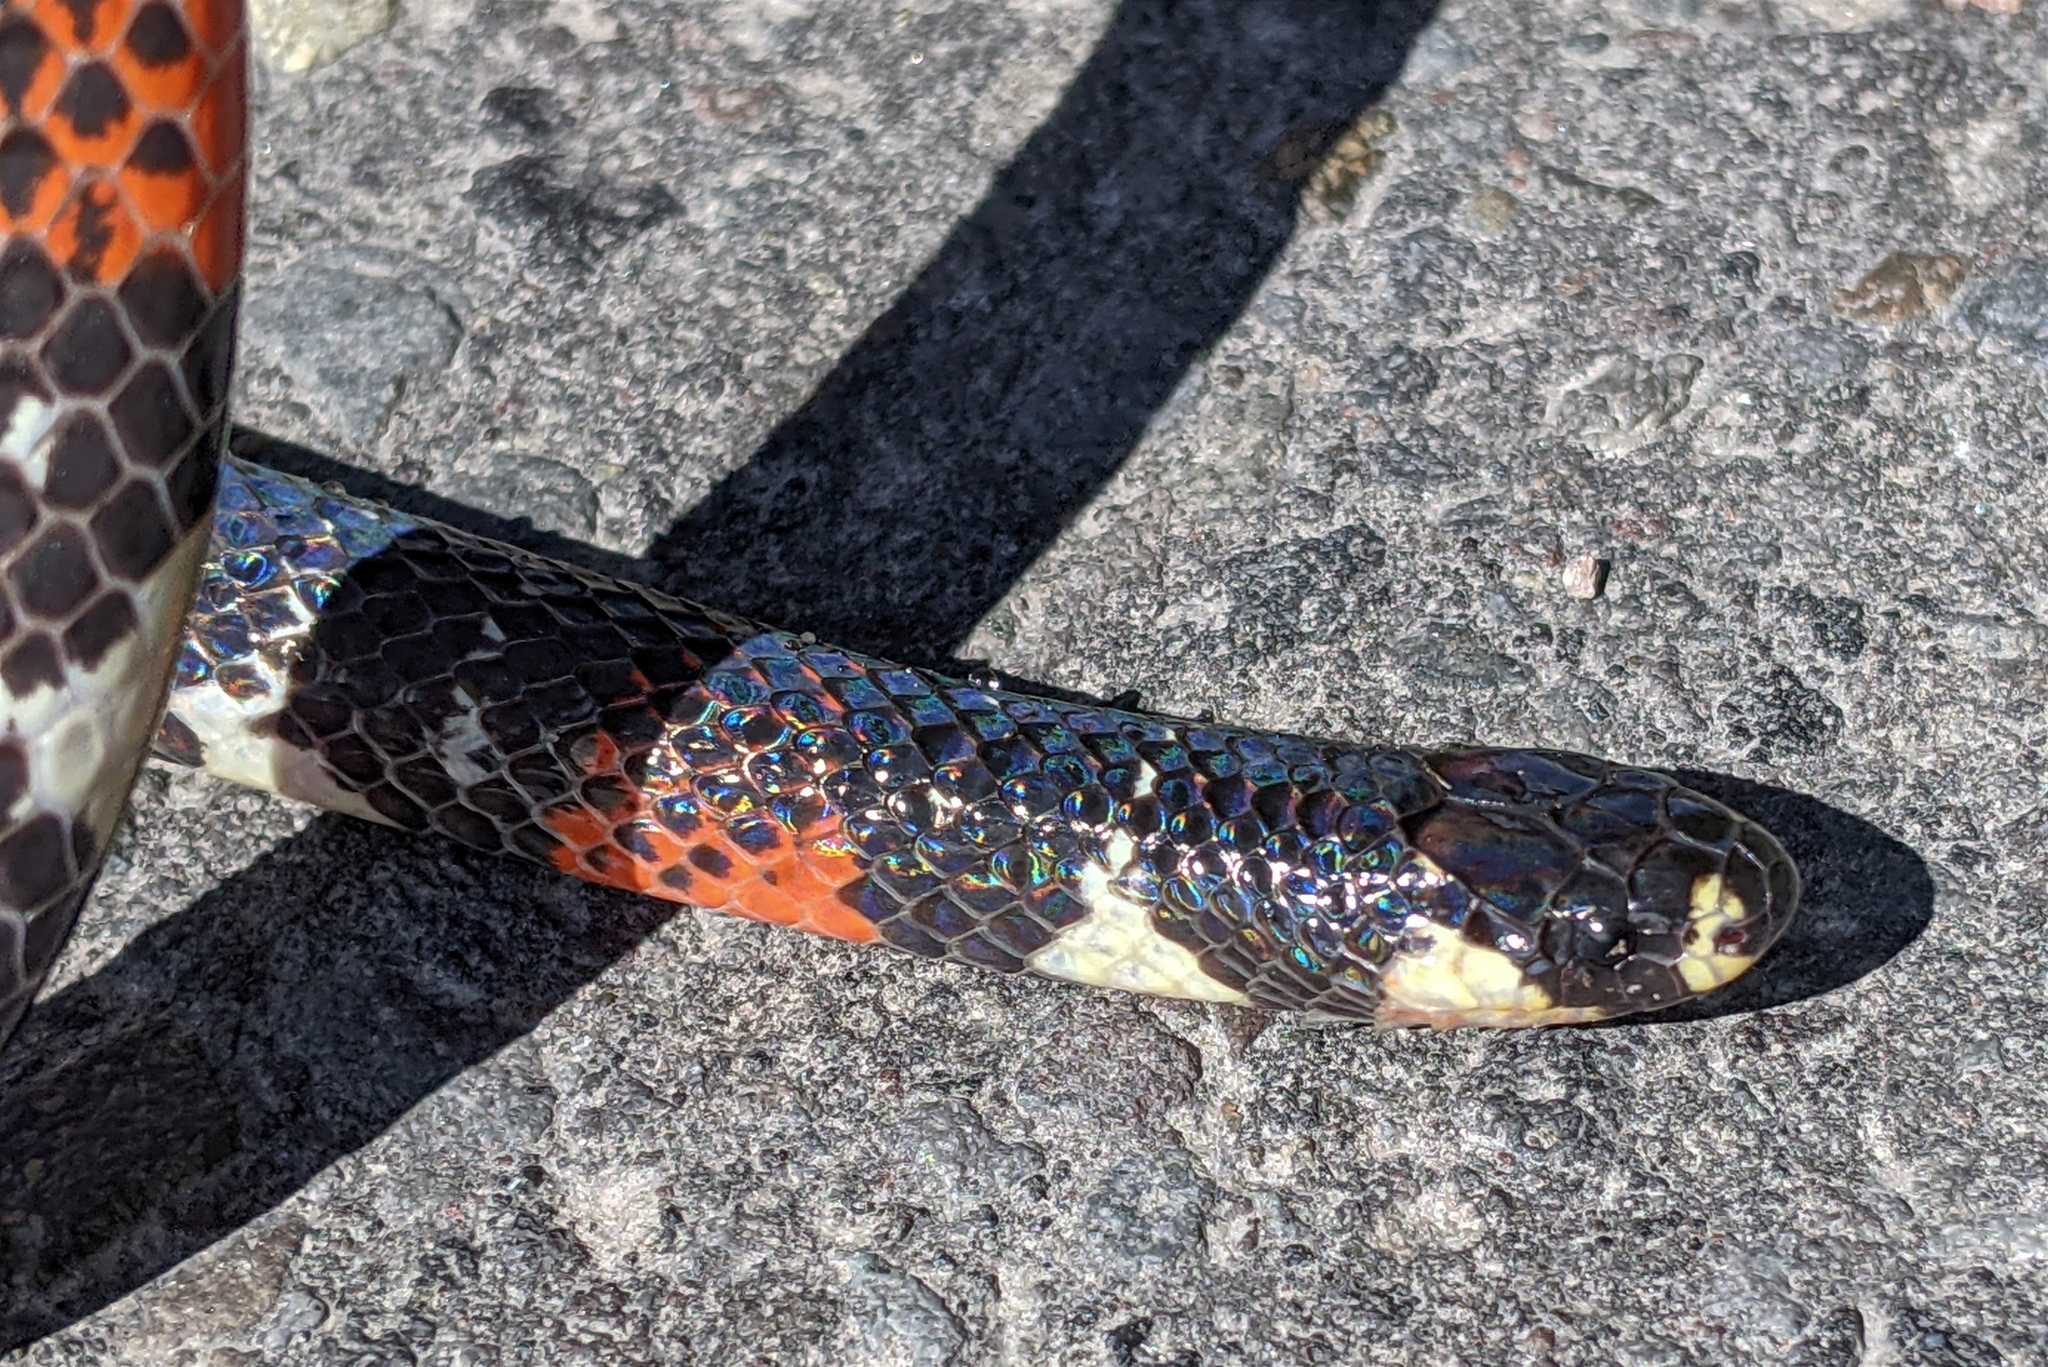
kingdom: Animalia
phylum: Chordata
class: Squamata
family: Colubridae
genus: Atractus
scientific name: Atractus elaps
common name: Black ground snake
